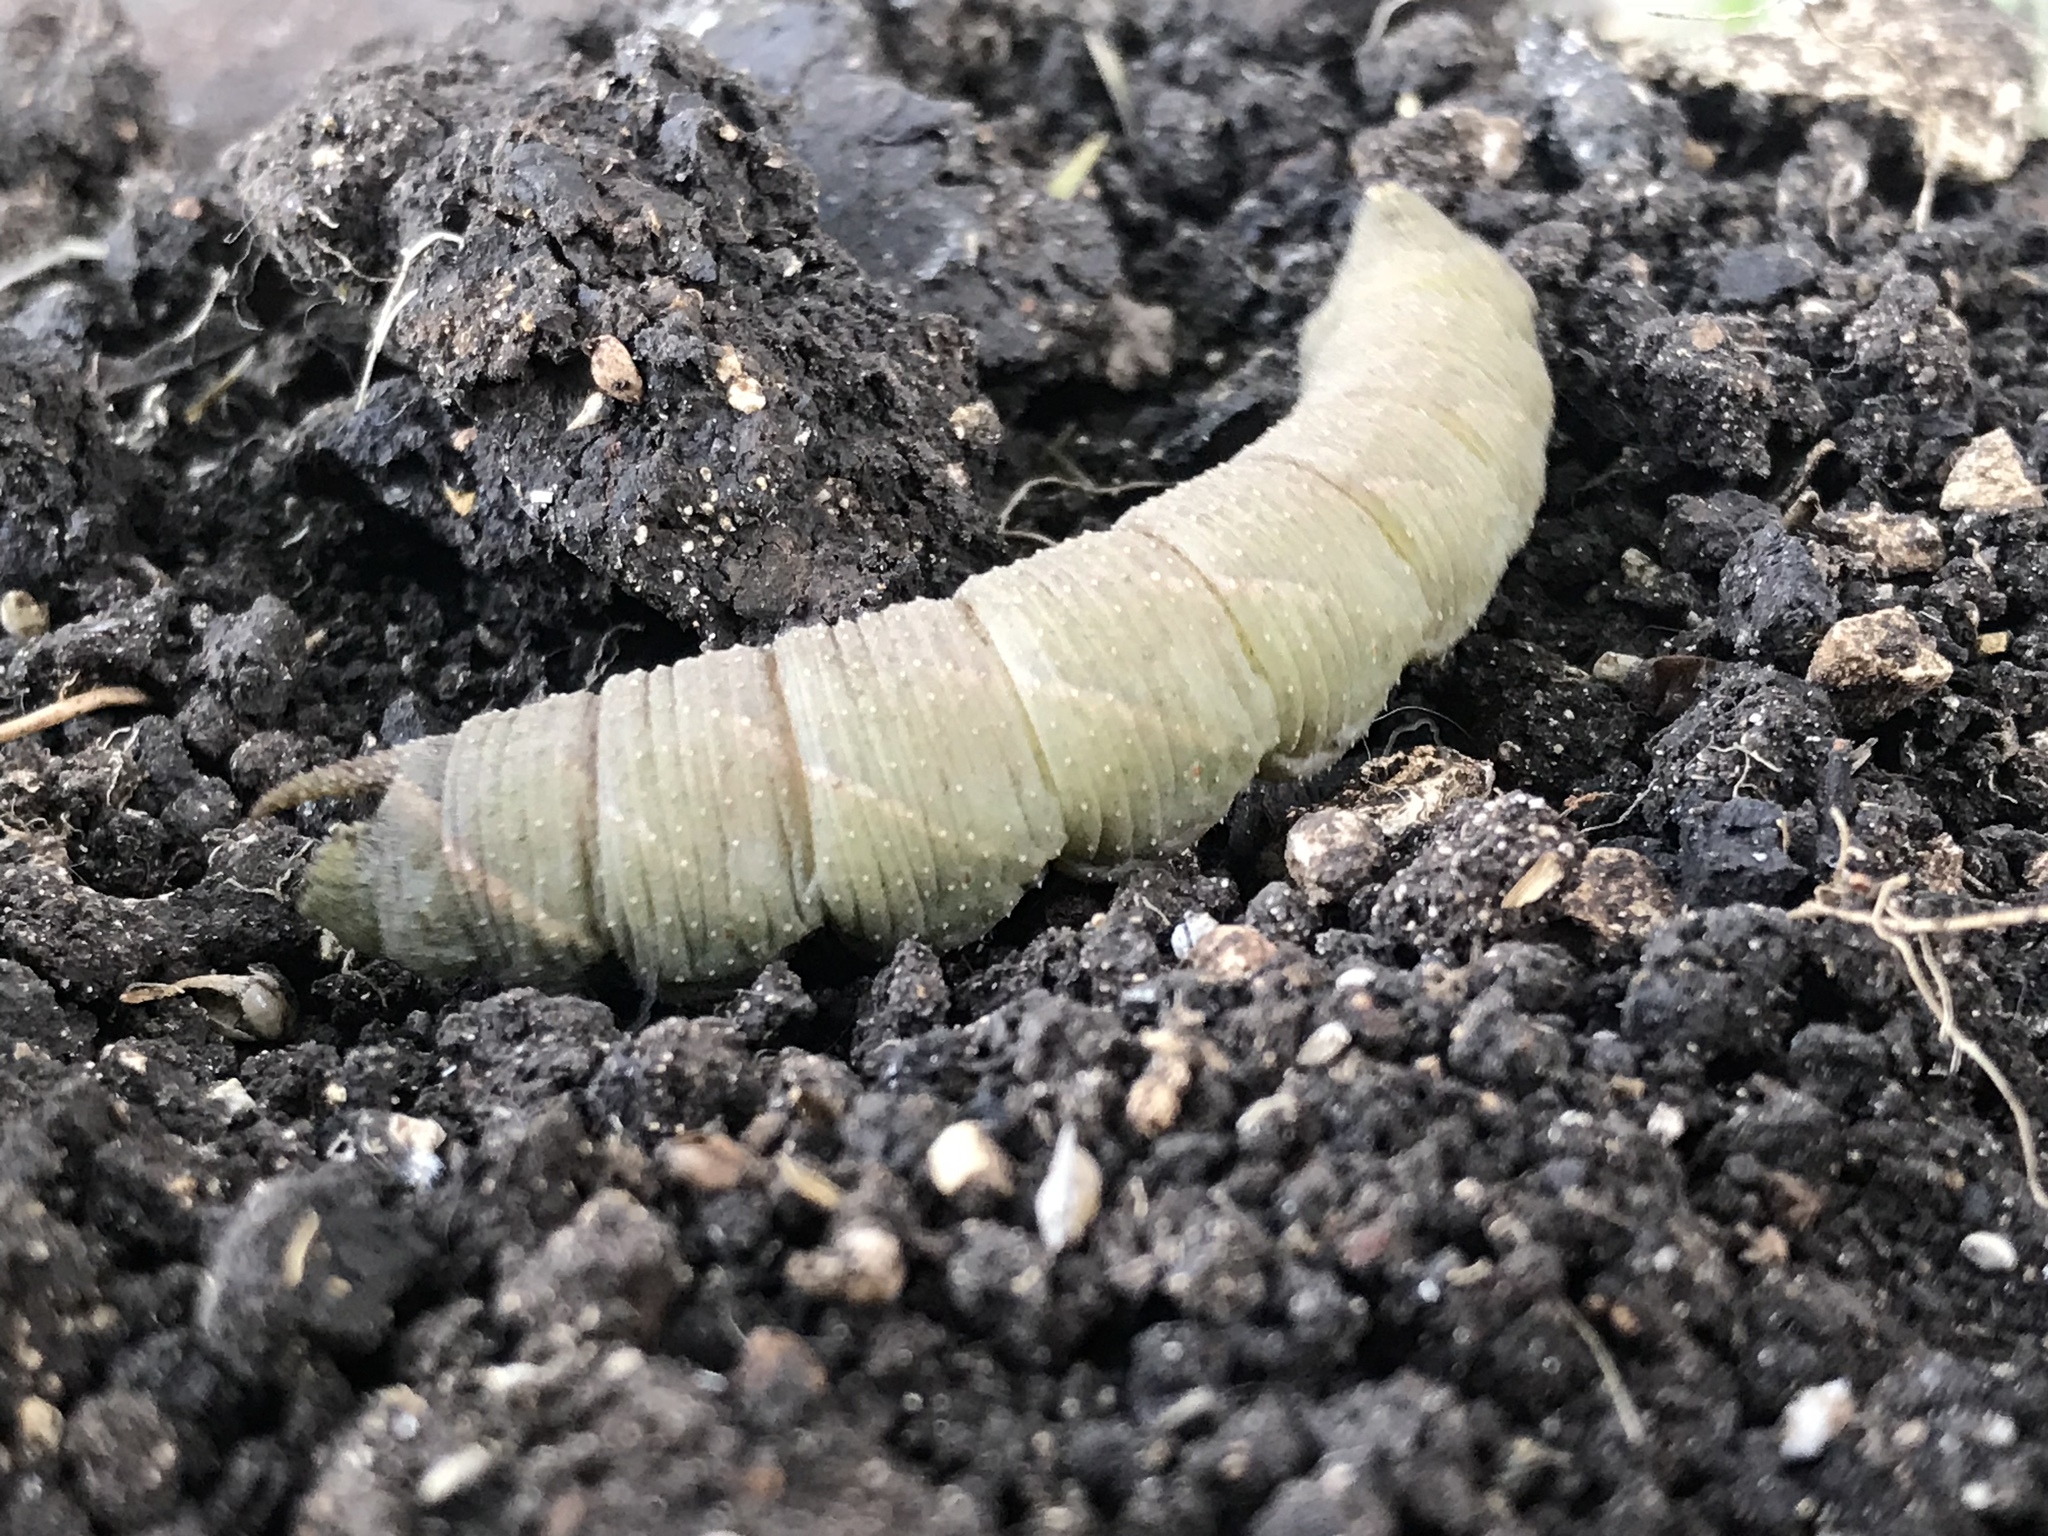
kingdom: Animalia
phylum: Arthropoda
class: Insecta
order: Lepidoptera
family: Sphingidae
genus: Amorpha
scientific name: Amorpha juglandis
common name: Walnut sphinx
